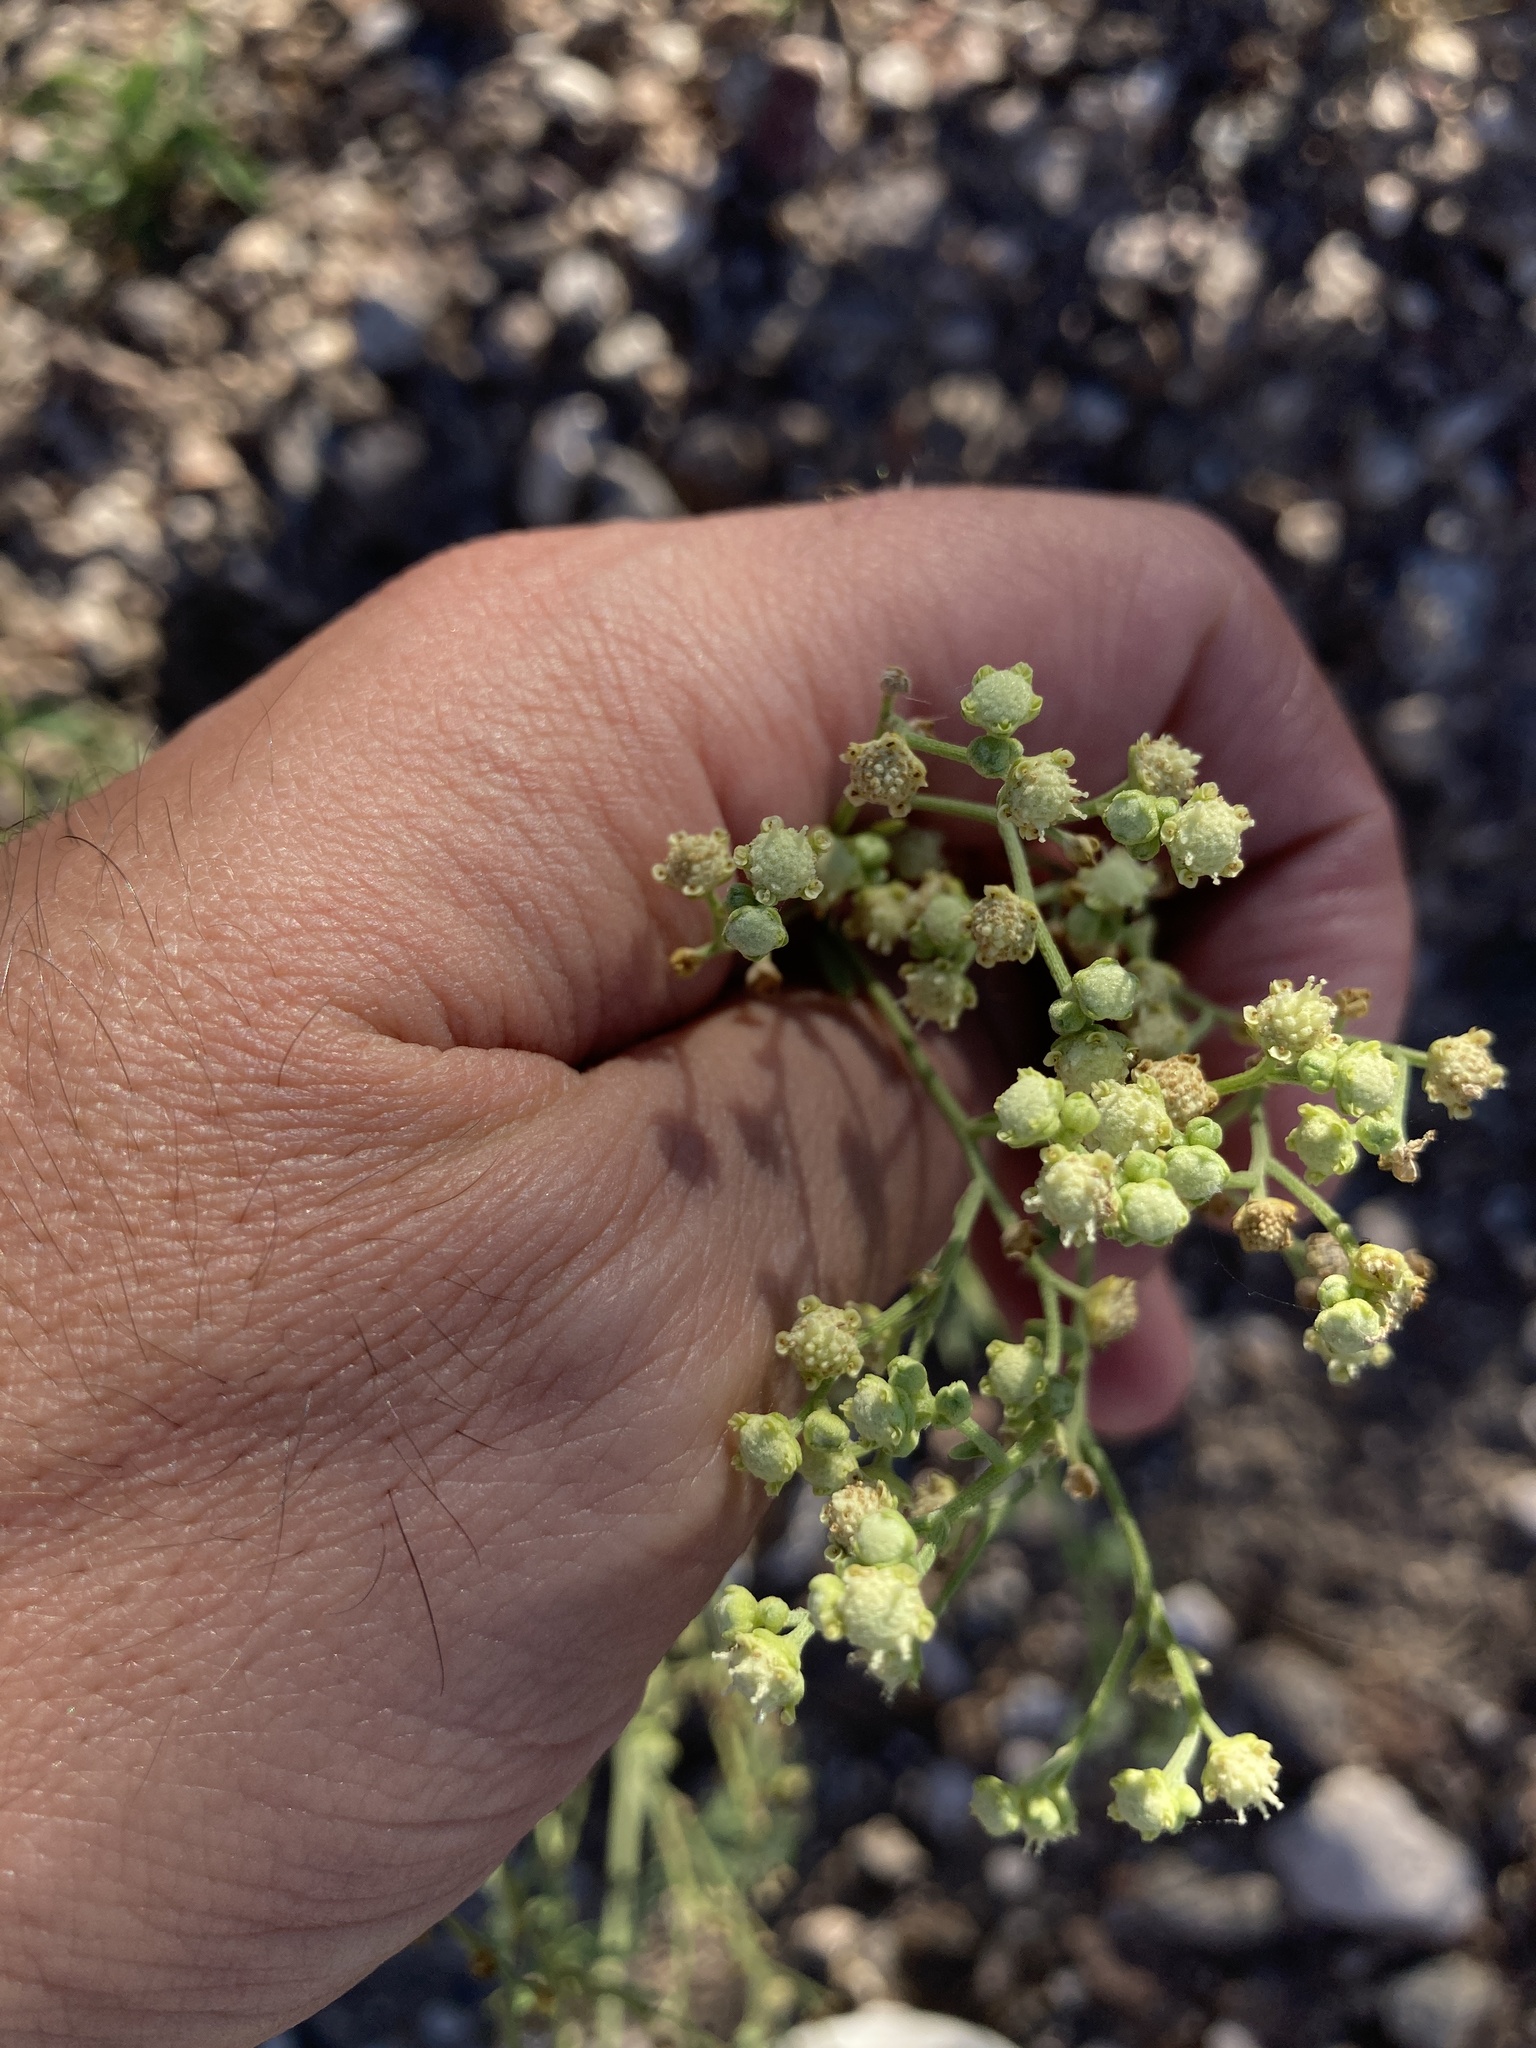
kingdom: Plantae
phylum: Tracheophyta
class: Magnoliopsida
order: Asterales
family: Asteraceae
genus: Parthenium
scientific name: Parthenium hysterophorus
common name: Santa maria feverfew
